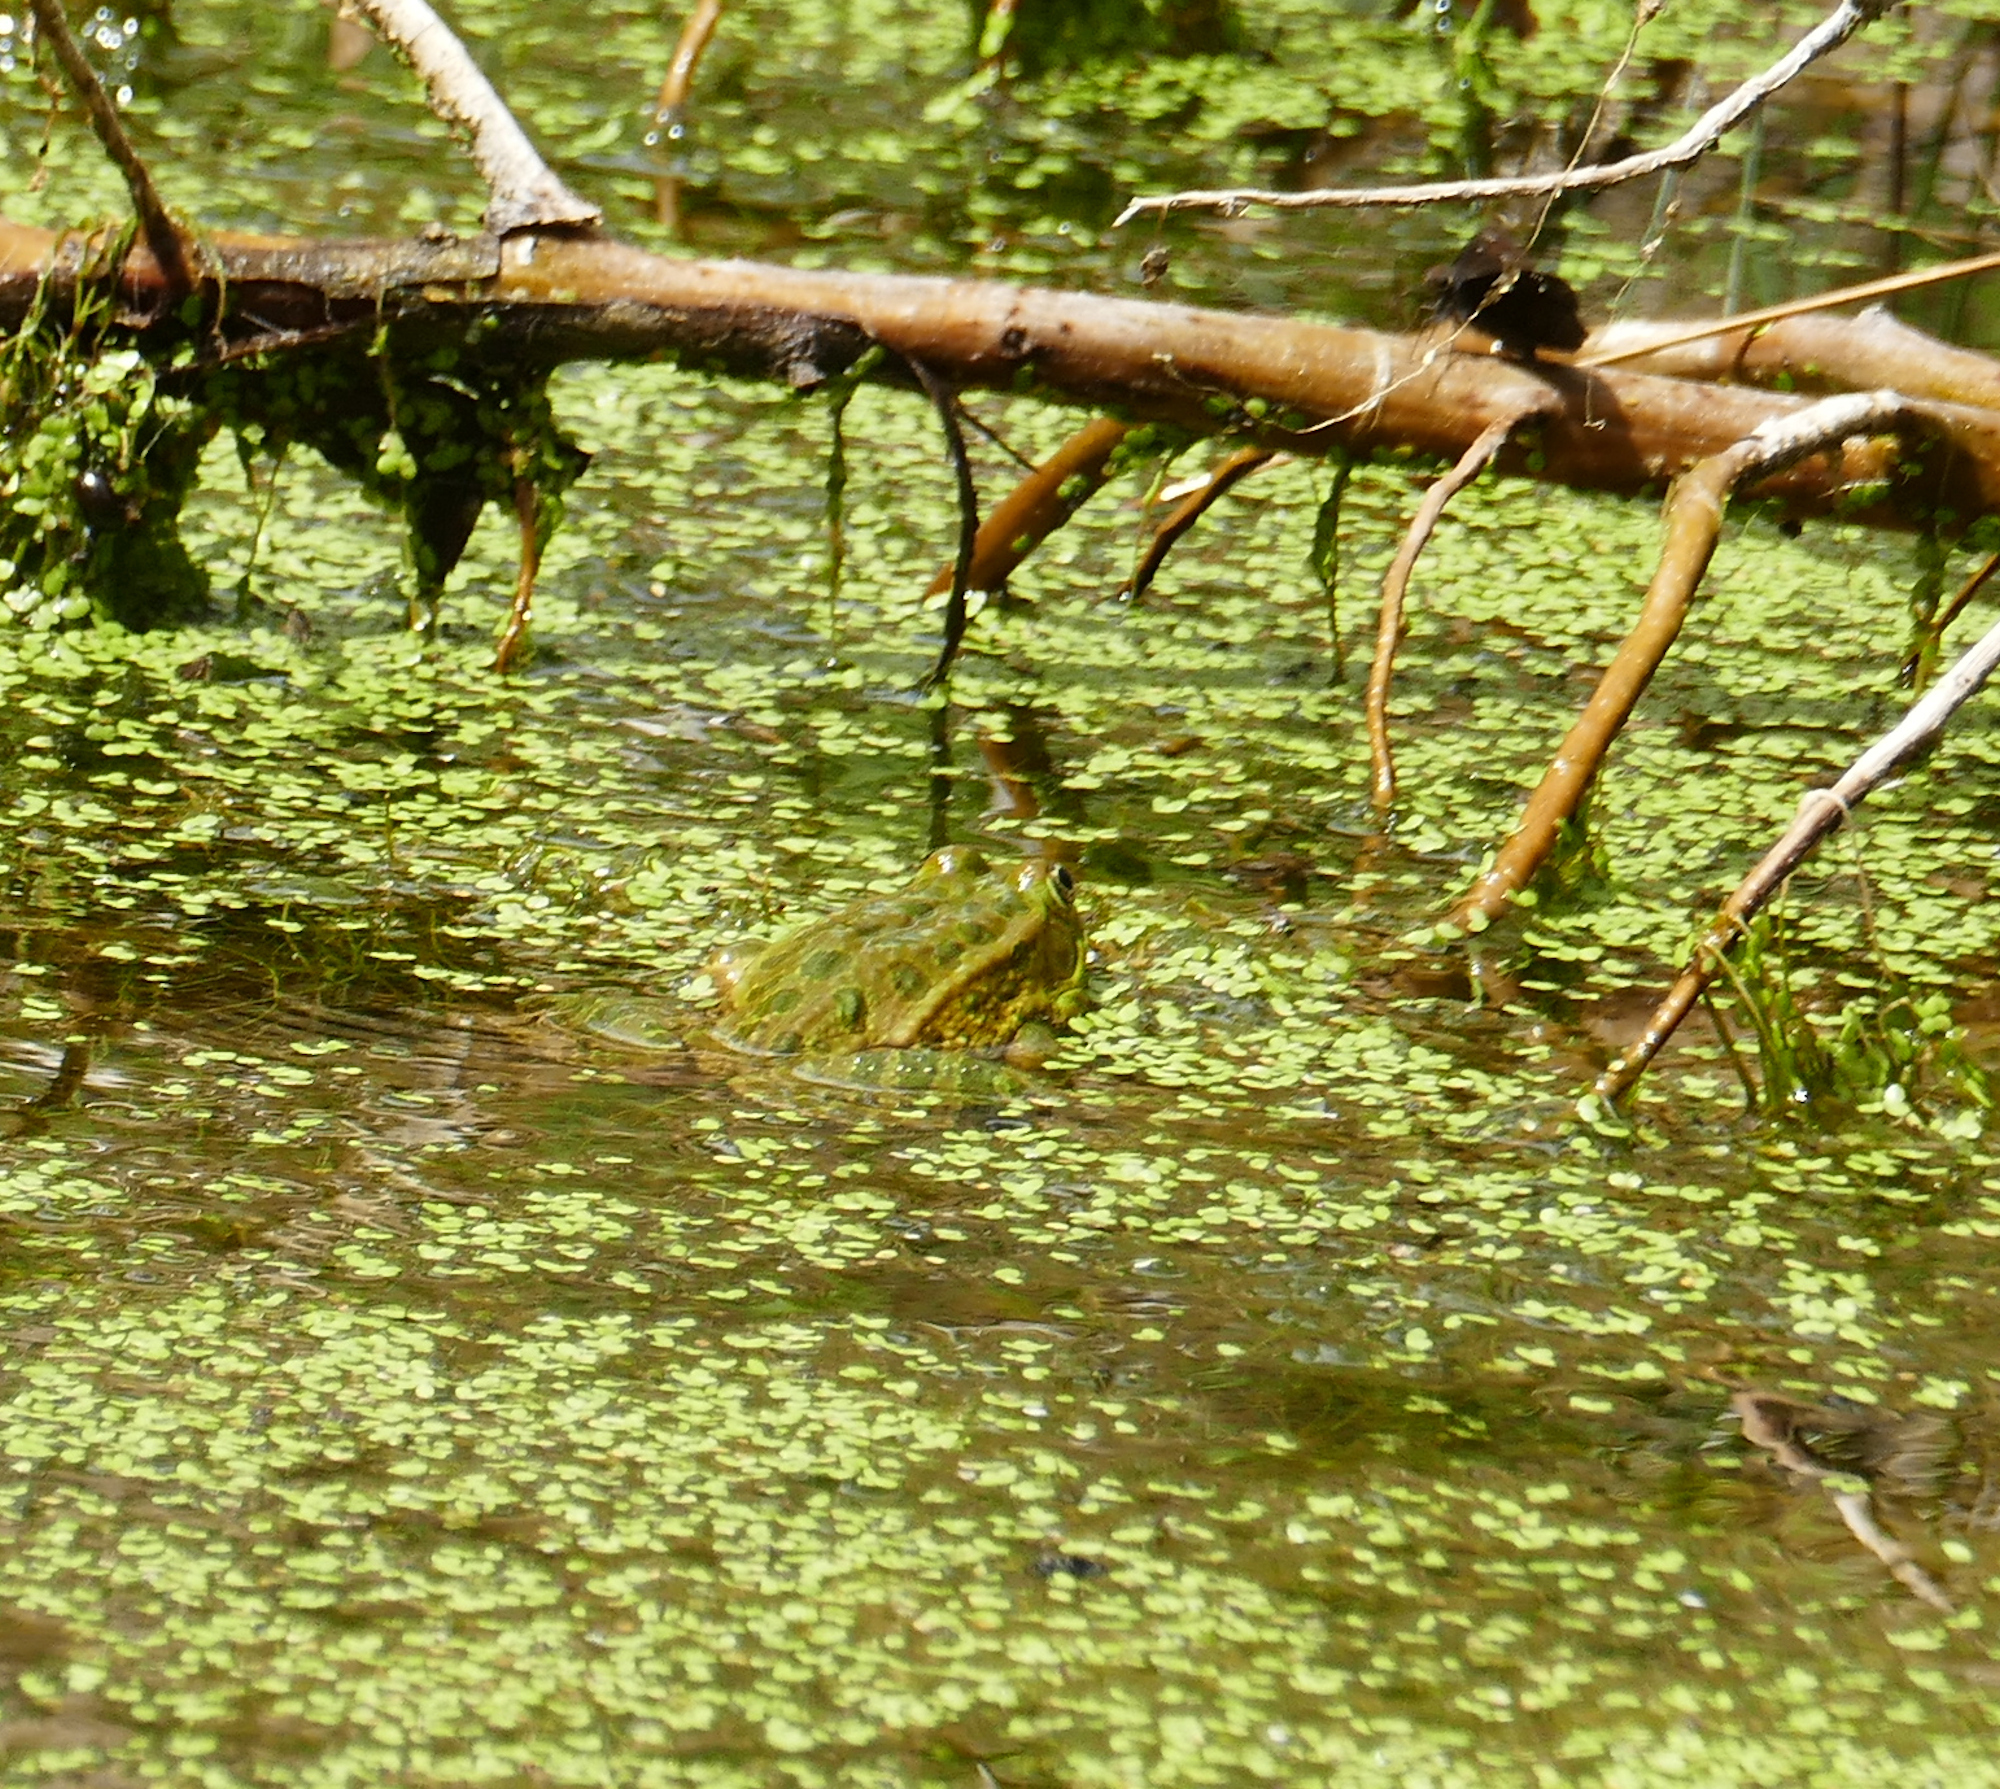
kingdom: Animalia
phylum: Chordata
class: Amphibia
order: Anura
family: Ranidae
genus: Lithobates
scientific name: Lithobates chiricahuensis
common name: Chiricahua leopard frog
